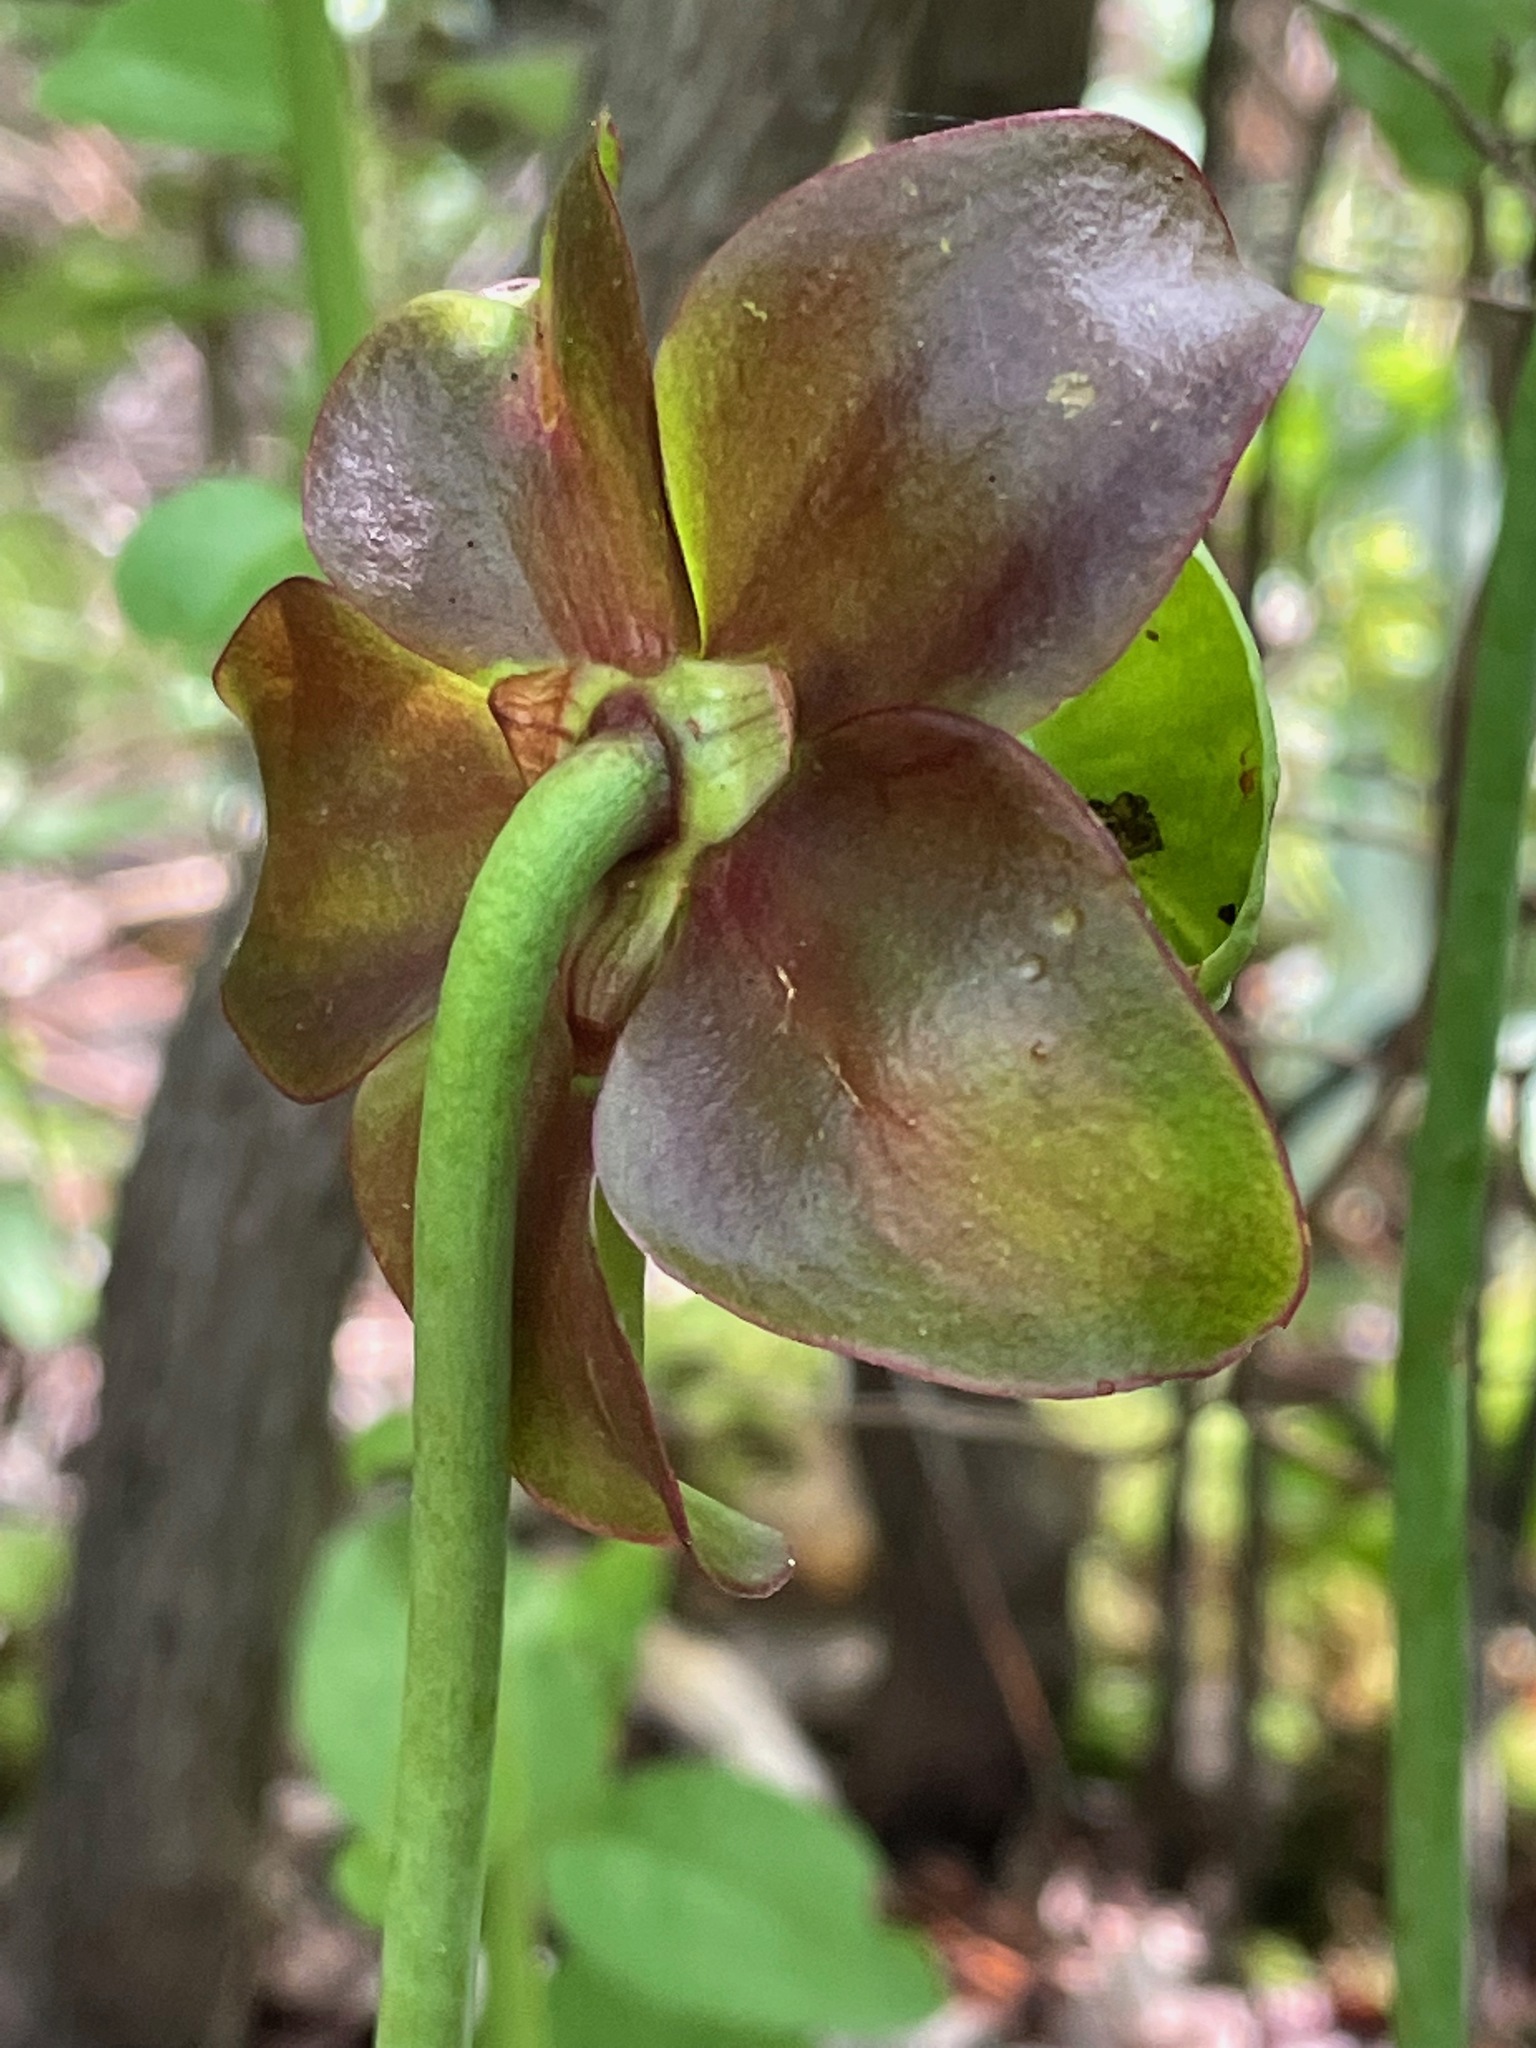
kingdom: Plantae
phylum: Tracheophyta
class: Magnoliopsida
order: Ericales
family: Sarraceniaceae
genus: Sarracenia
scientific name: Sarracenia purpurea
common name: Pitcherplant
